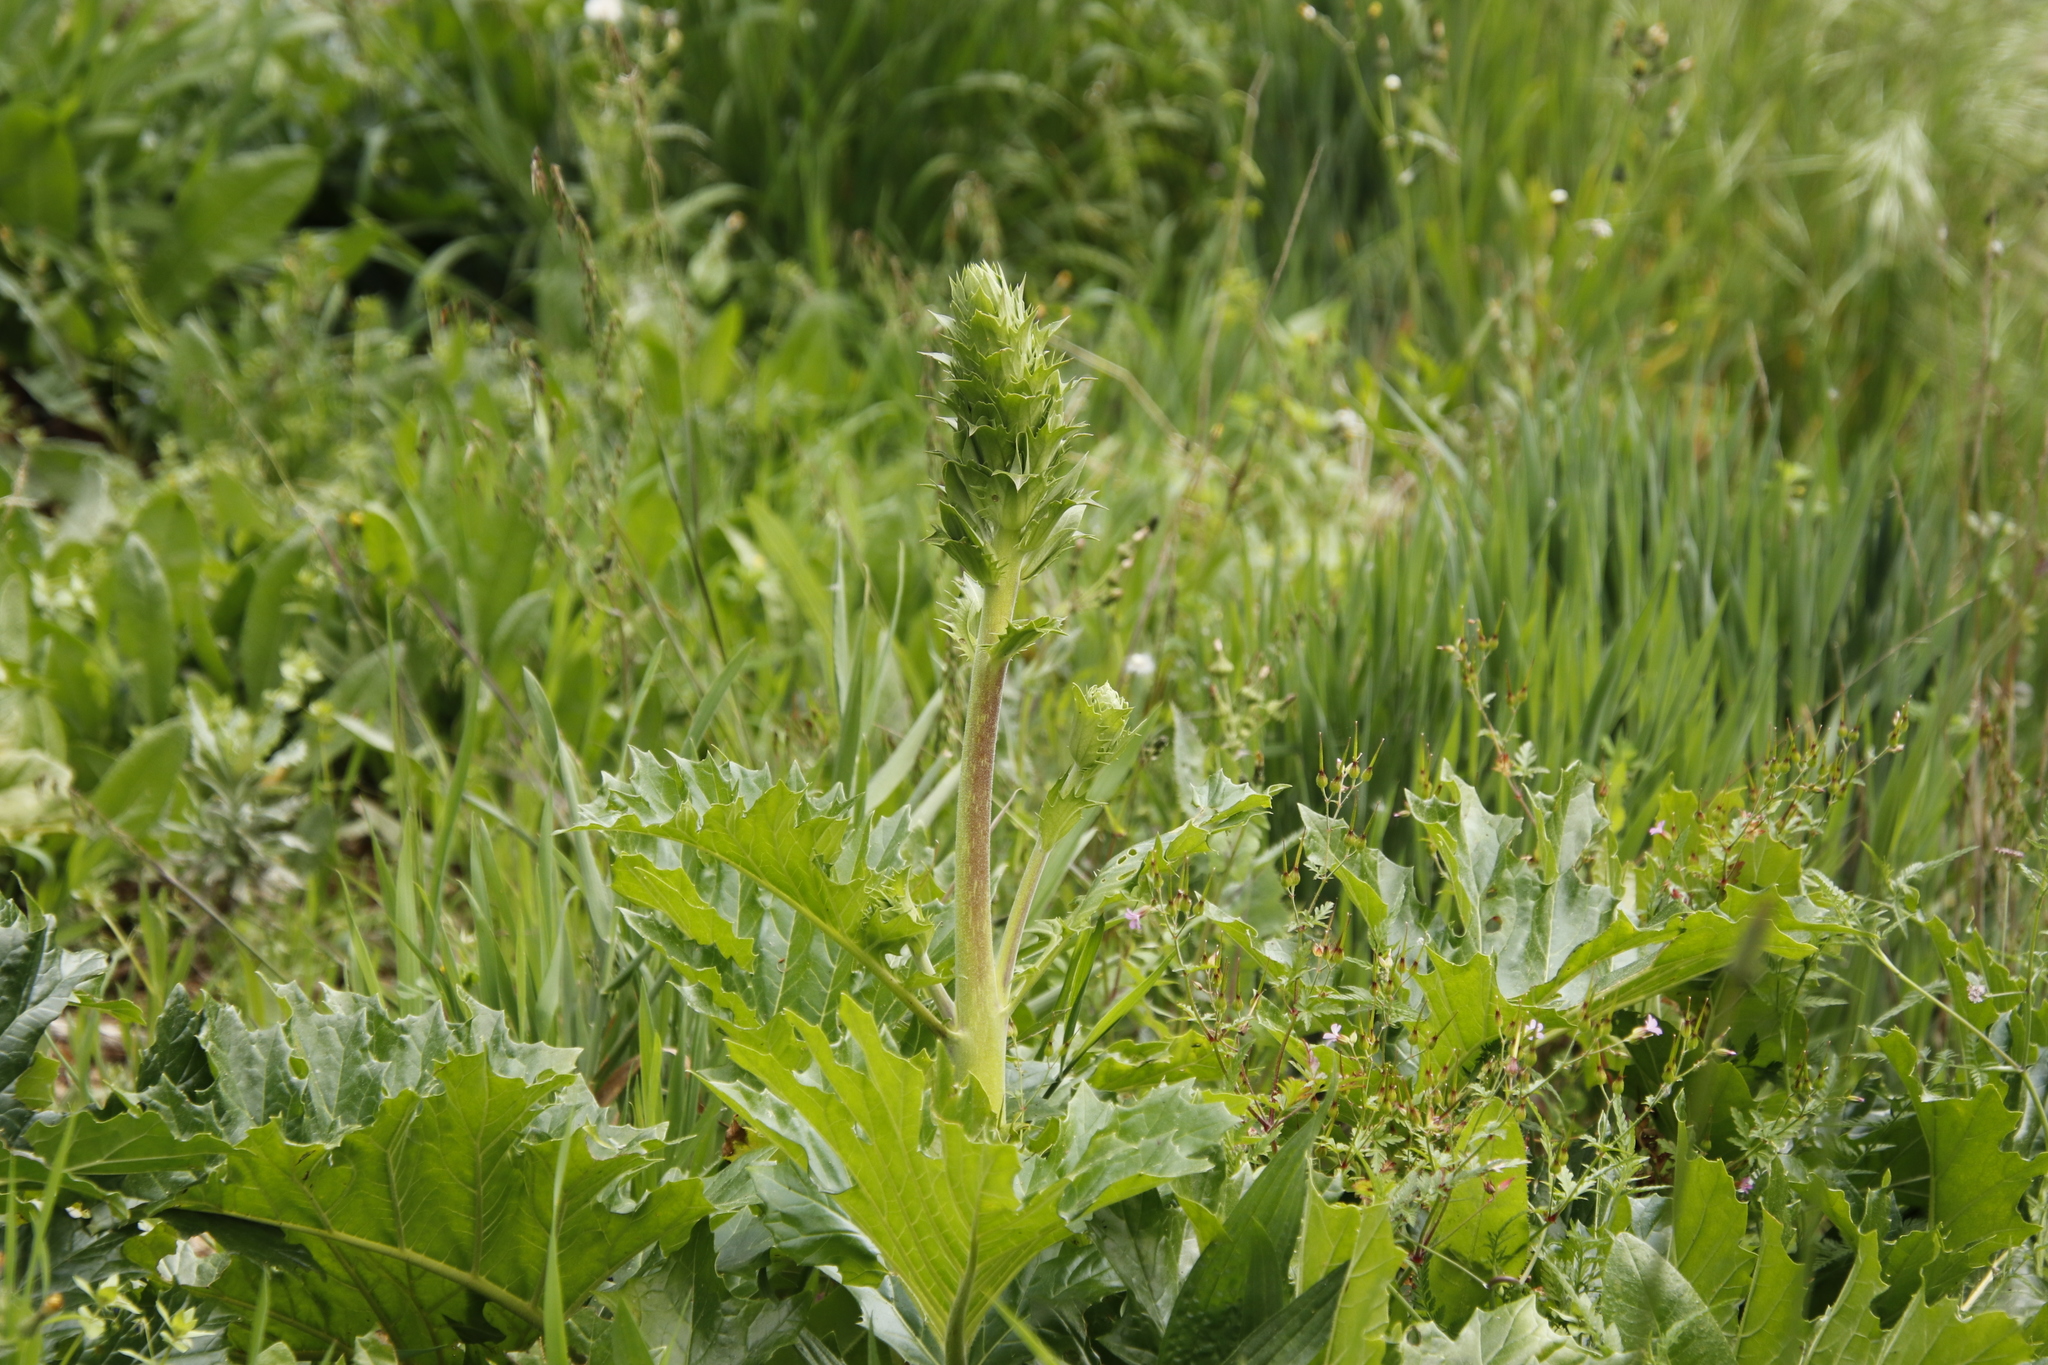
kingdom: Plantae
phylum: Tracheophyta
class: Magnoliopsida
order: Lamiales
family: Acanthaceae
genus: Acanthus
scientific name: Acanthus mollis
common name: Bear's-breech
